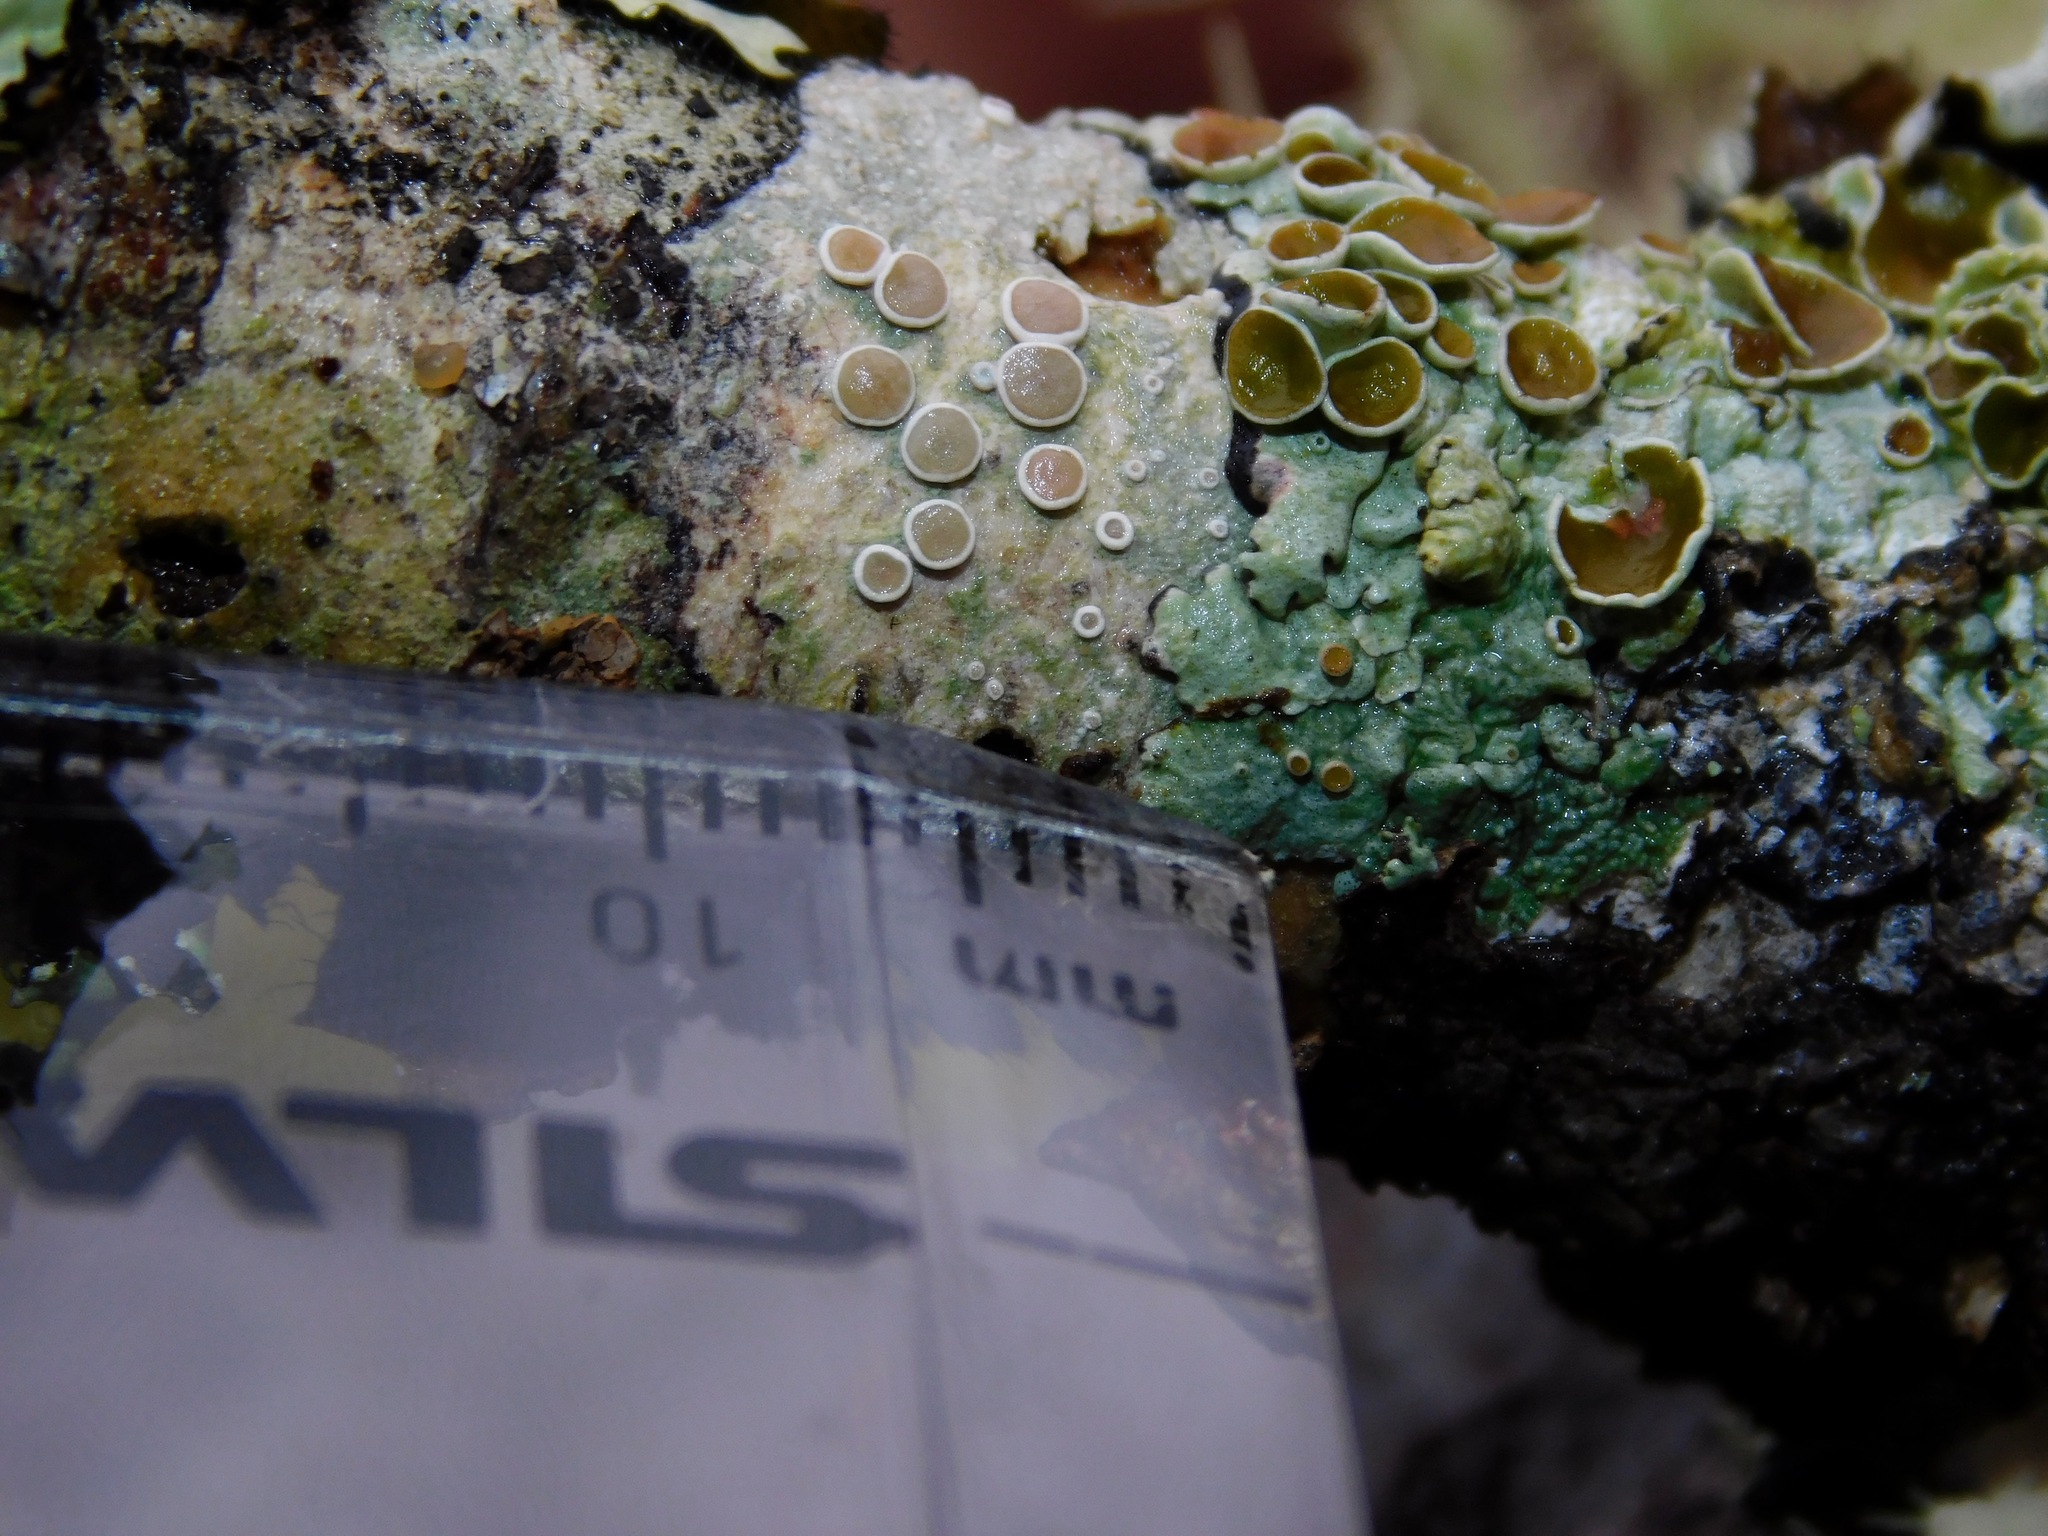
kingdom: Fungi
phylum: Ascomycota
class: Lecanoromycetes
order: Lecanorales
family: Lecanoraceae
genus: Lecanora
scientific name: Lecanora protervula
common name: Lesser dust my discs
